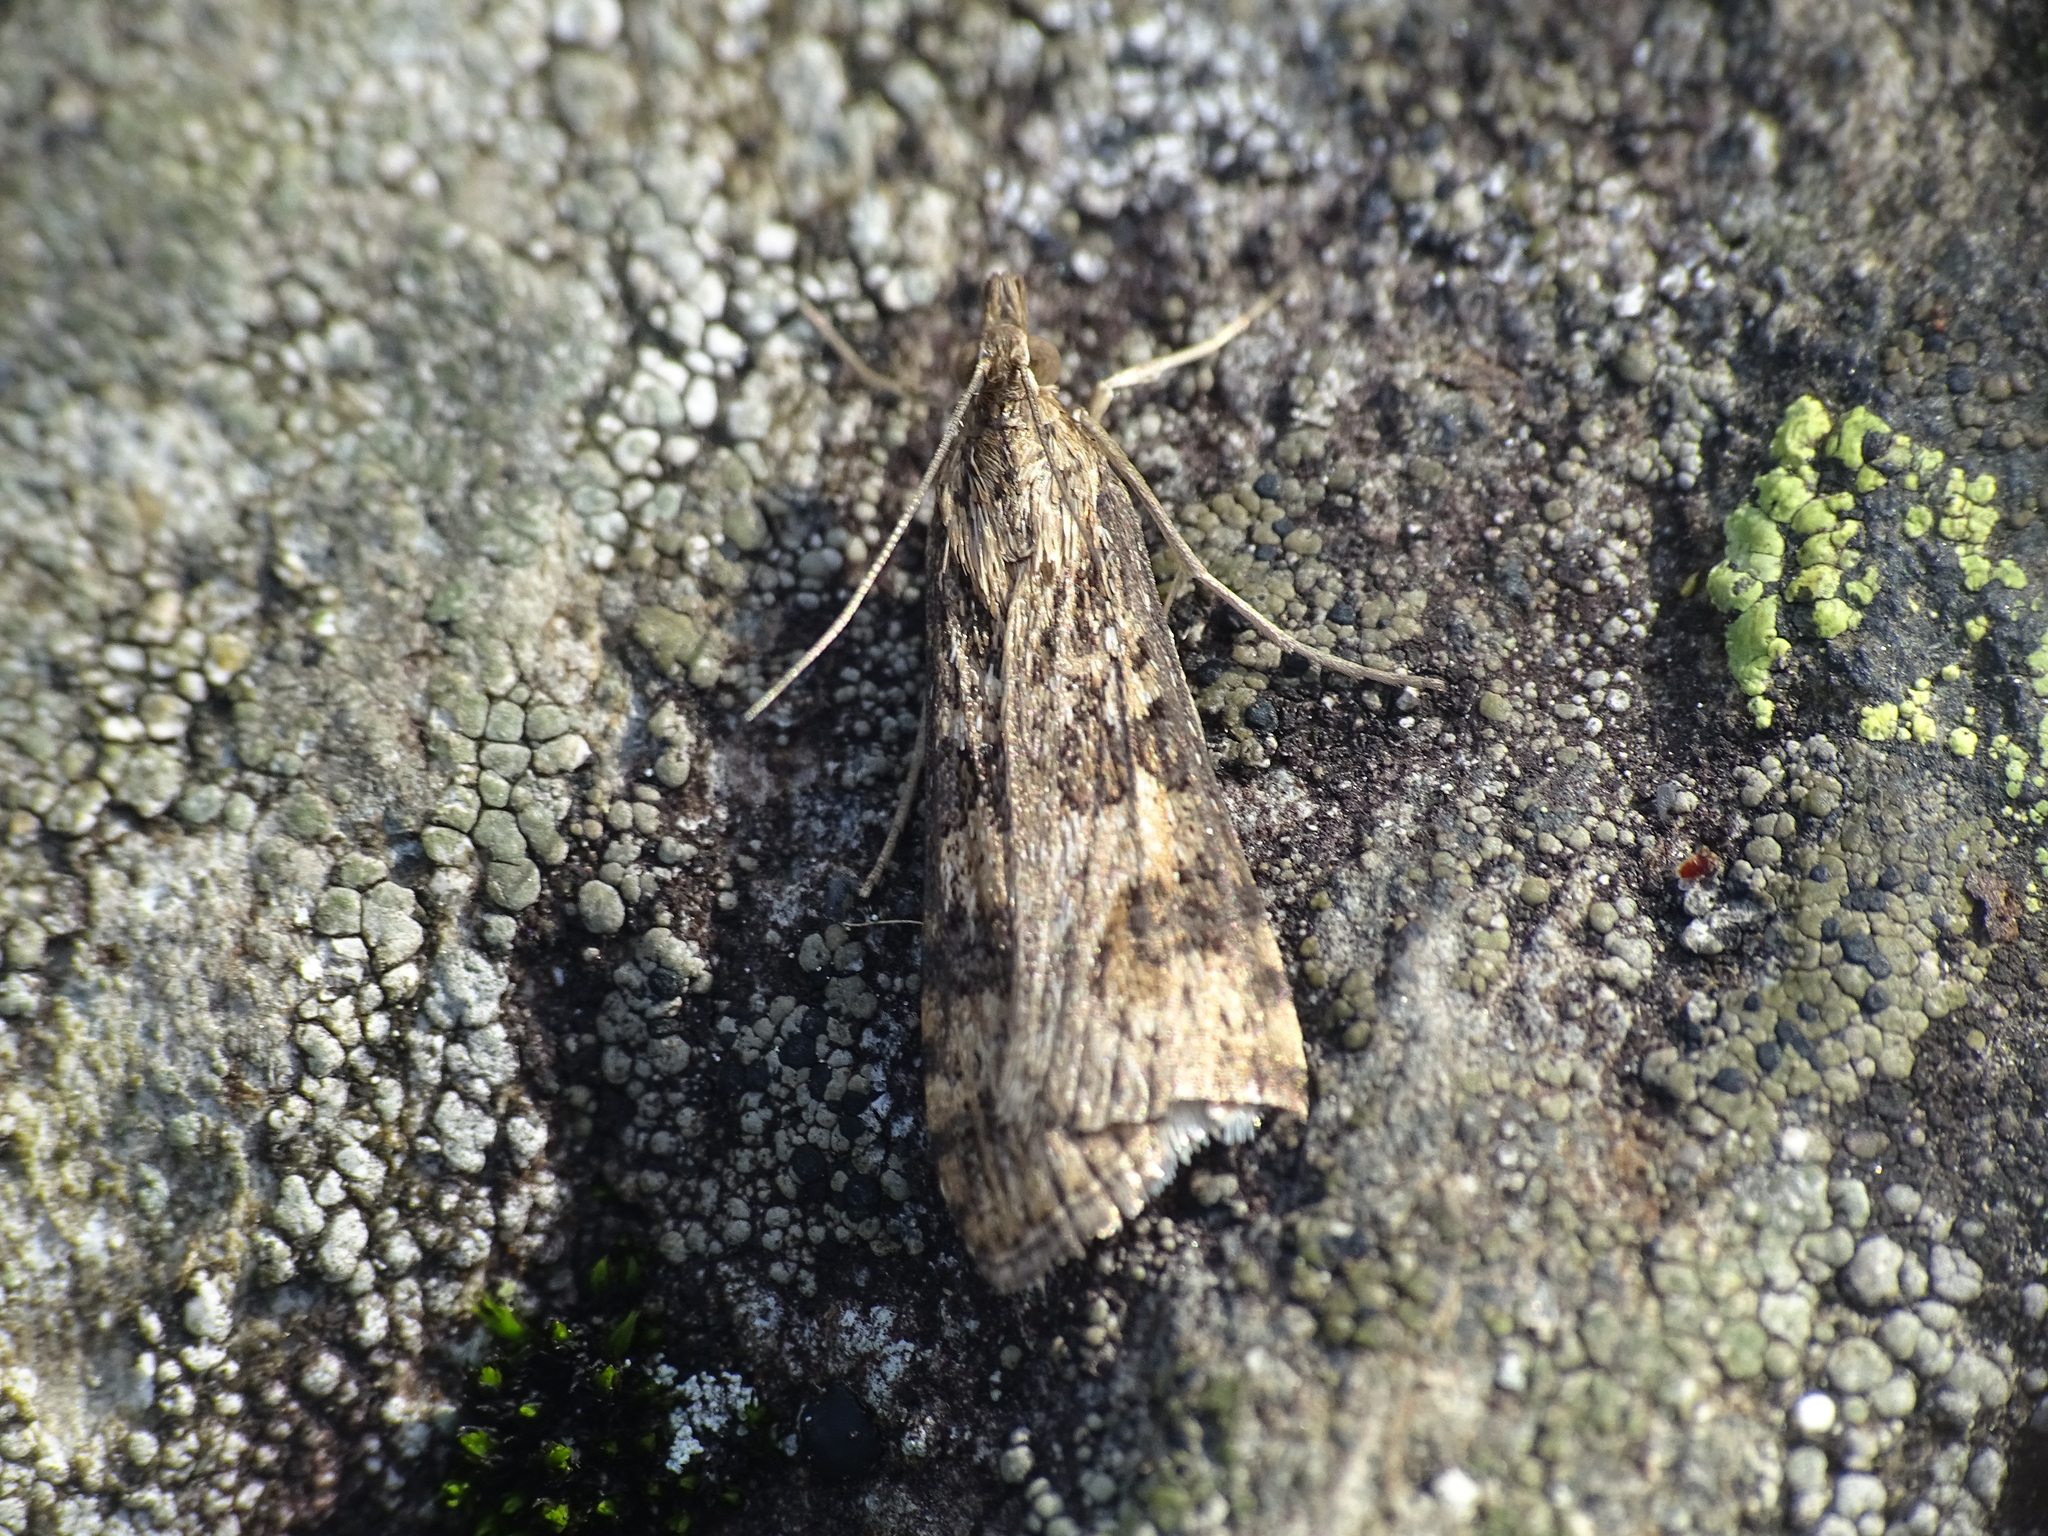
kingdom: Animalia
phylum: Arthropoda
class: Insecta
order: Lepidoptera
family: Crambidae
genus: Nomophila
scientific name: Nomophila nearctica
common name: American rush veneer
